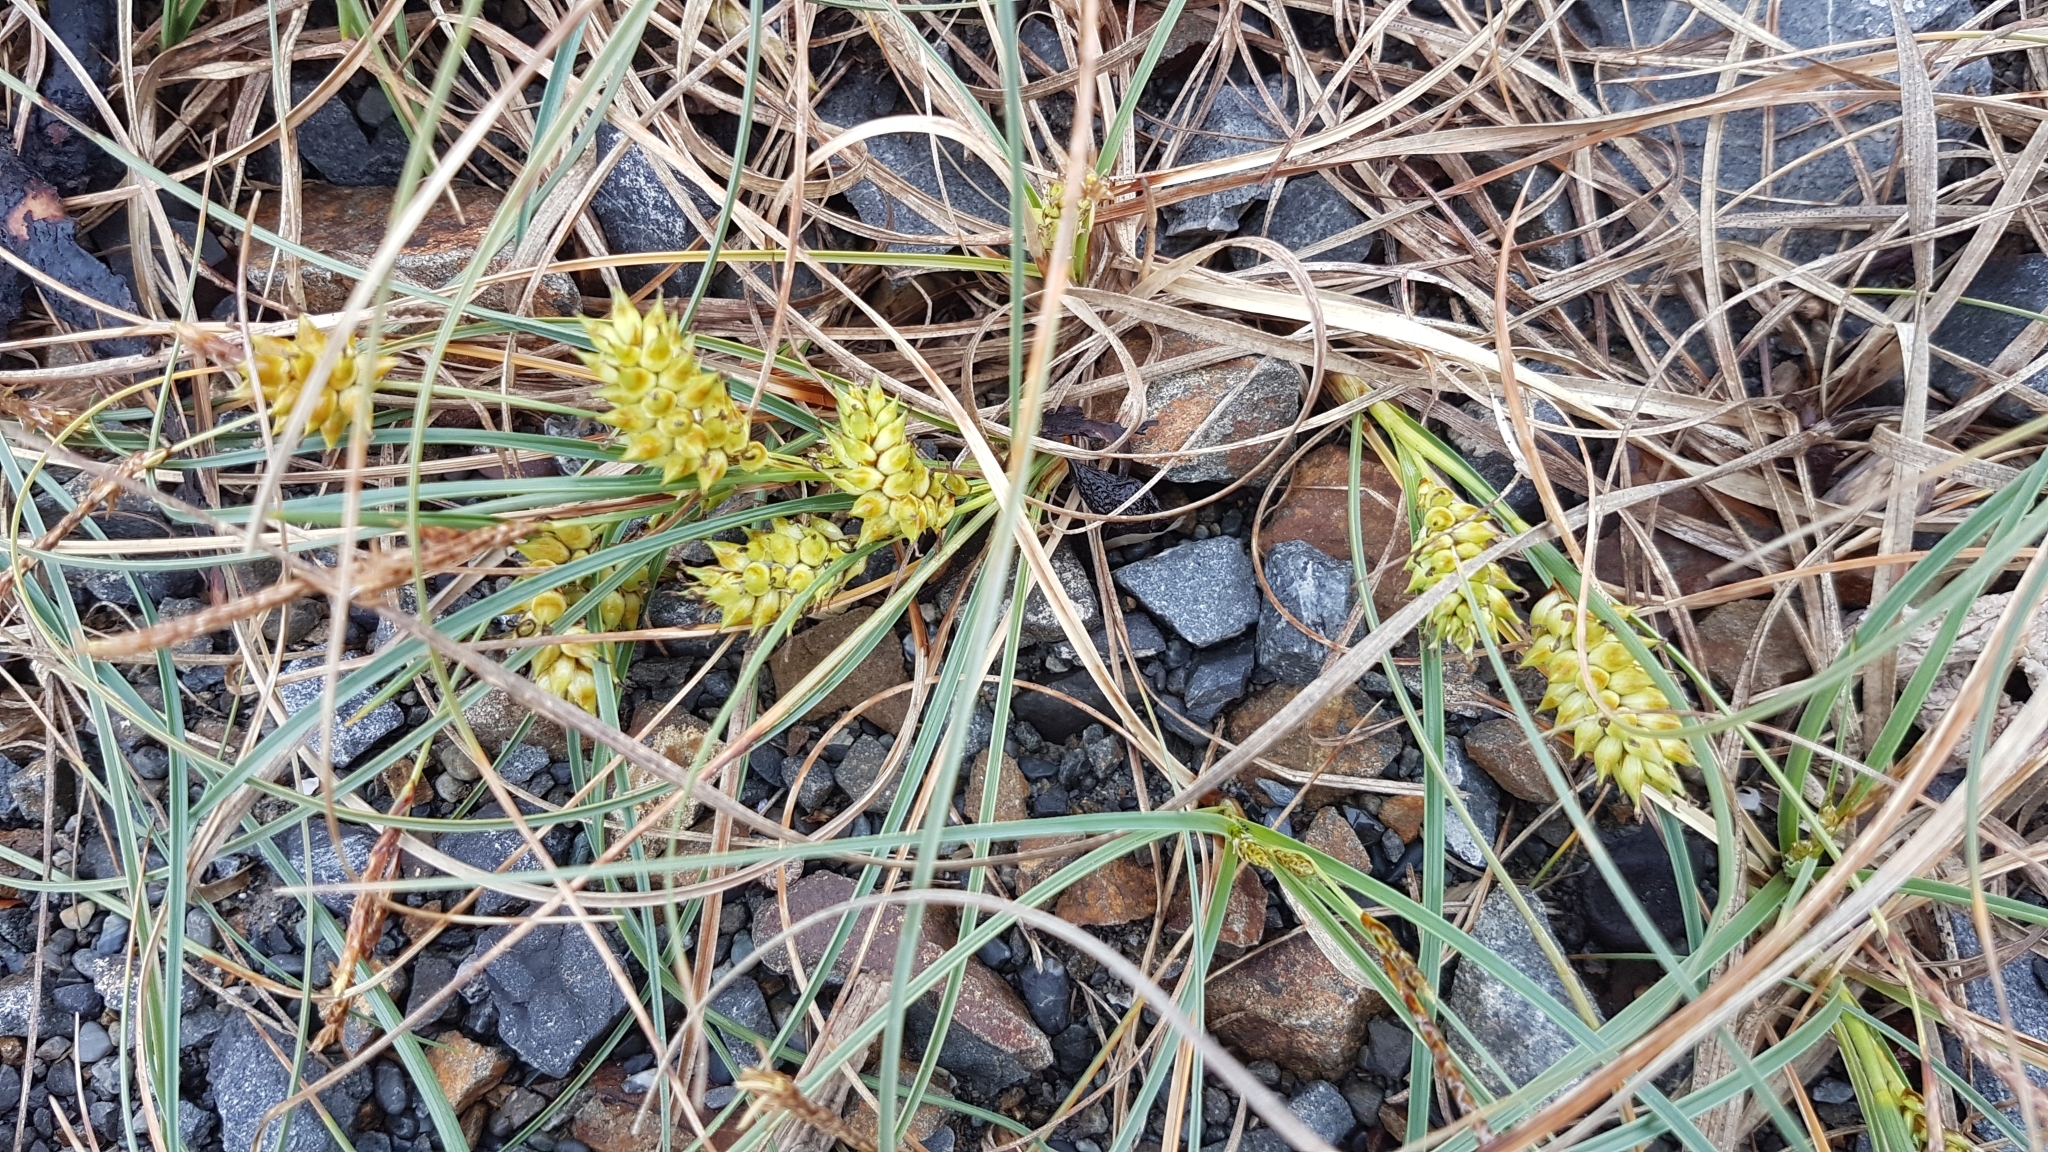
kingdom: Plantae
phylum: Tracheophyta
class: Liliopsida
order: Poales
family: Cyperaceae
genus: Carex
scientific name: Carex pumila
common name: Dwarf sedge
